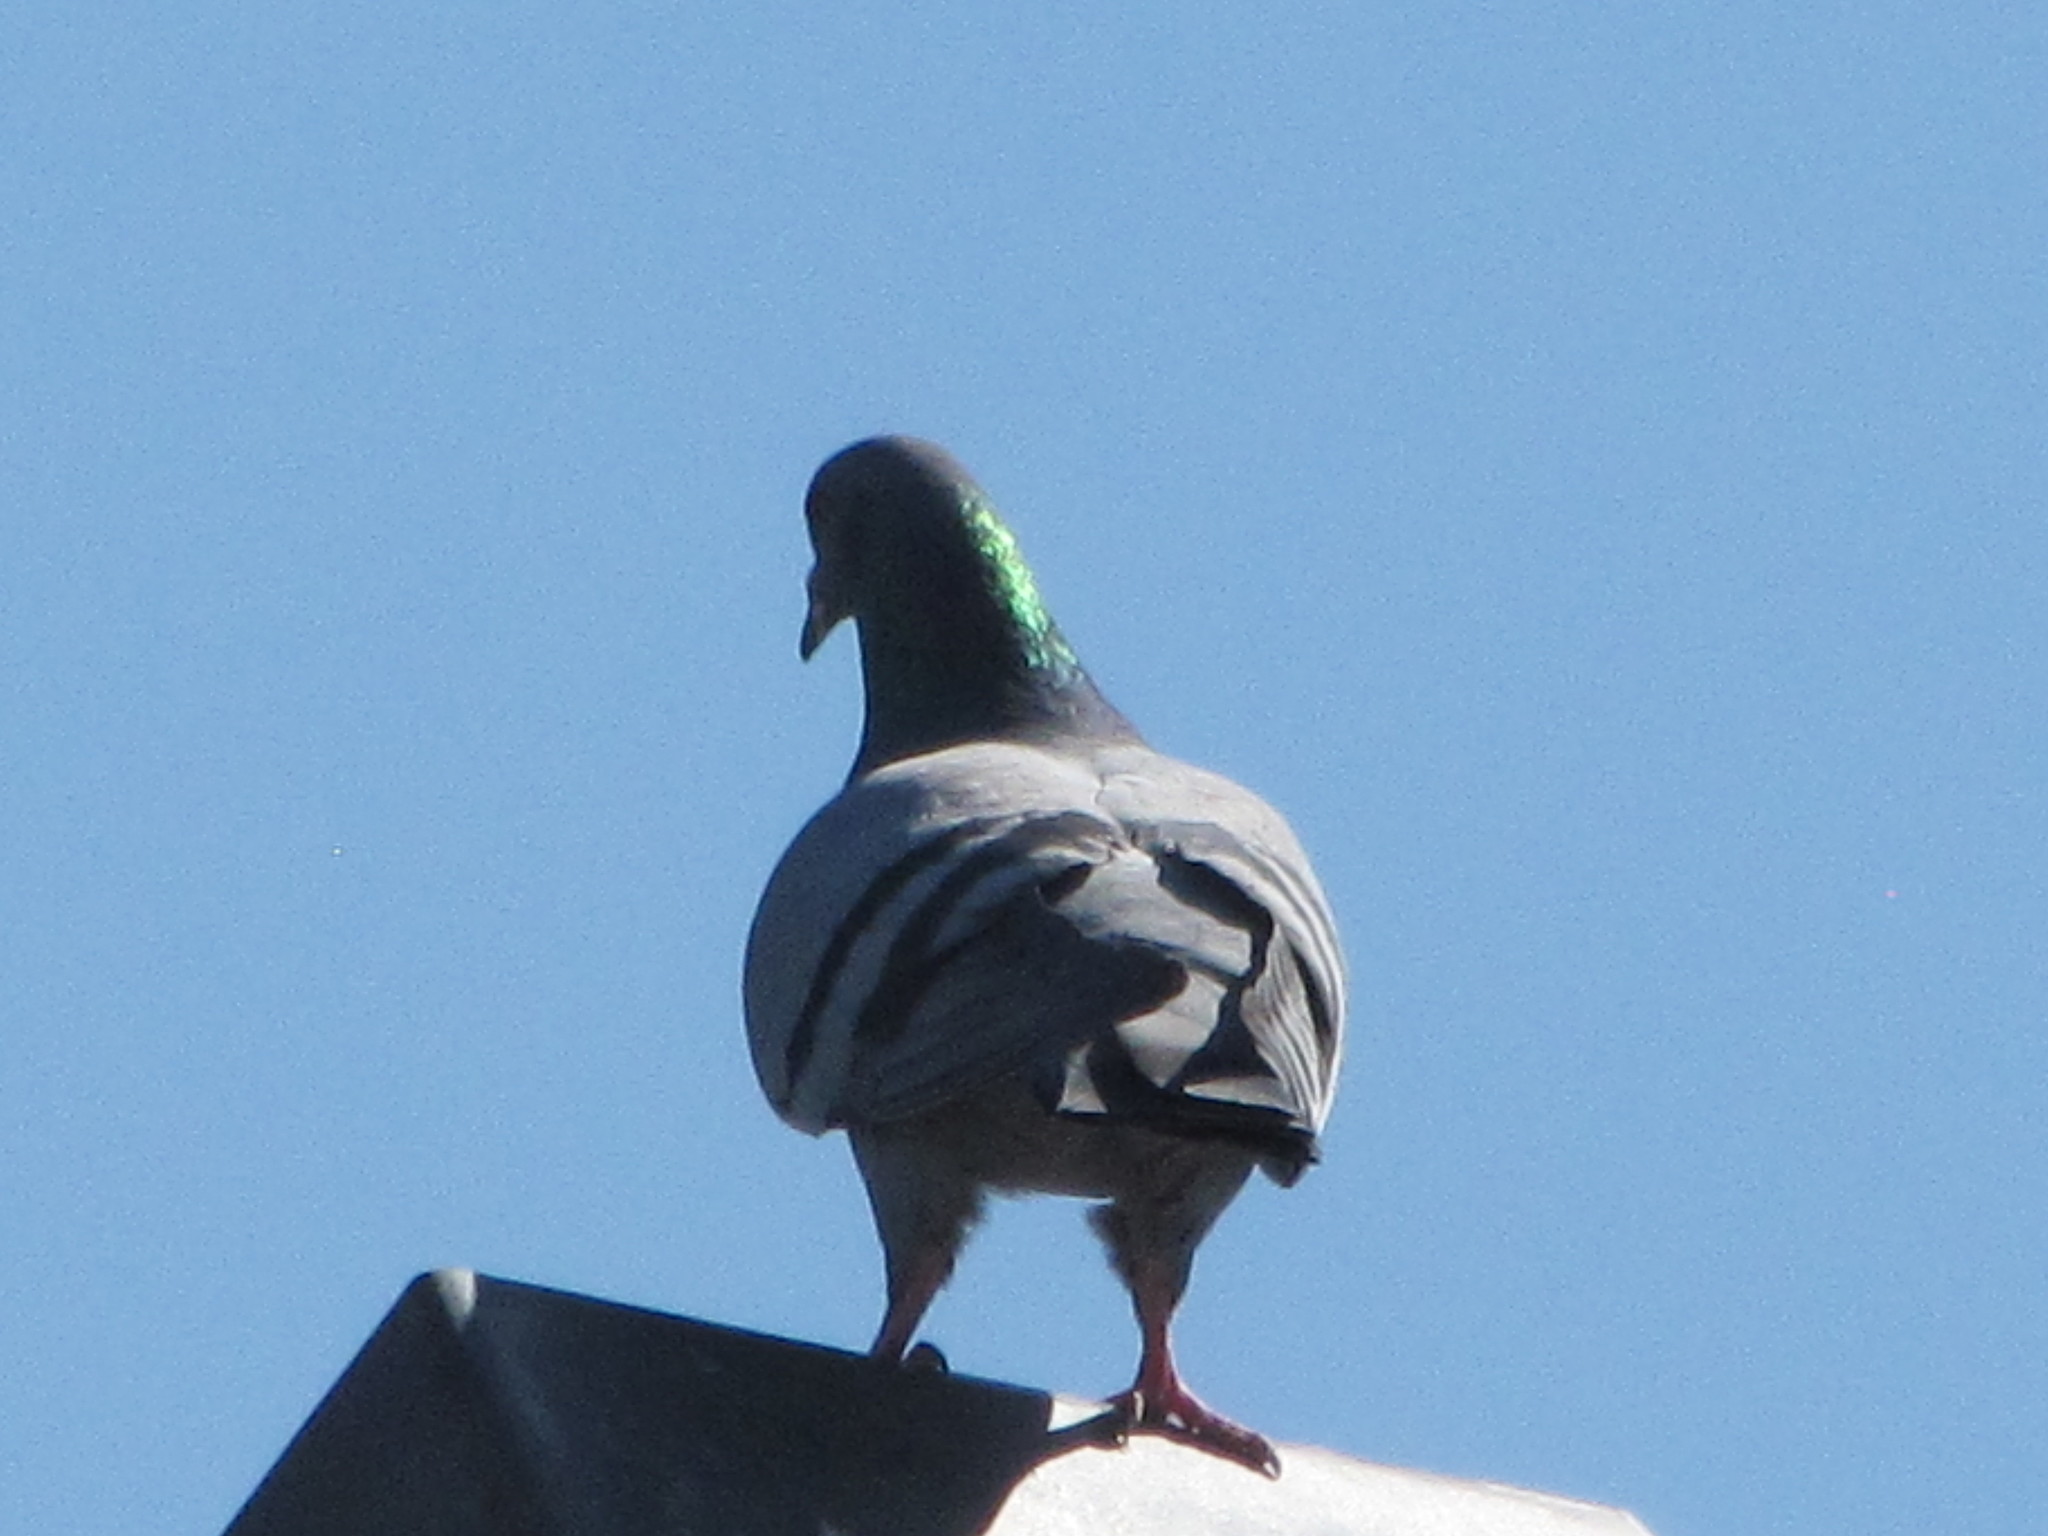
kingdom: Animalia
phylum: Chordata
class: Aves
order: Columbiformes
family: Columbidae
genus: Columba
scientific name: Columba livia
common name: Rock pigeon
